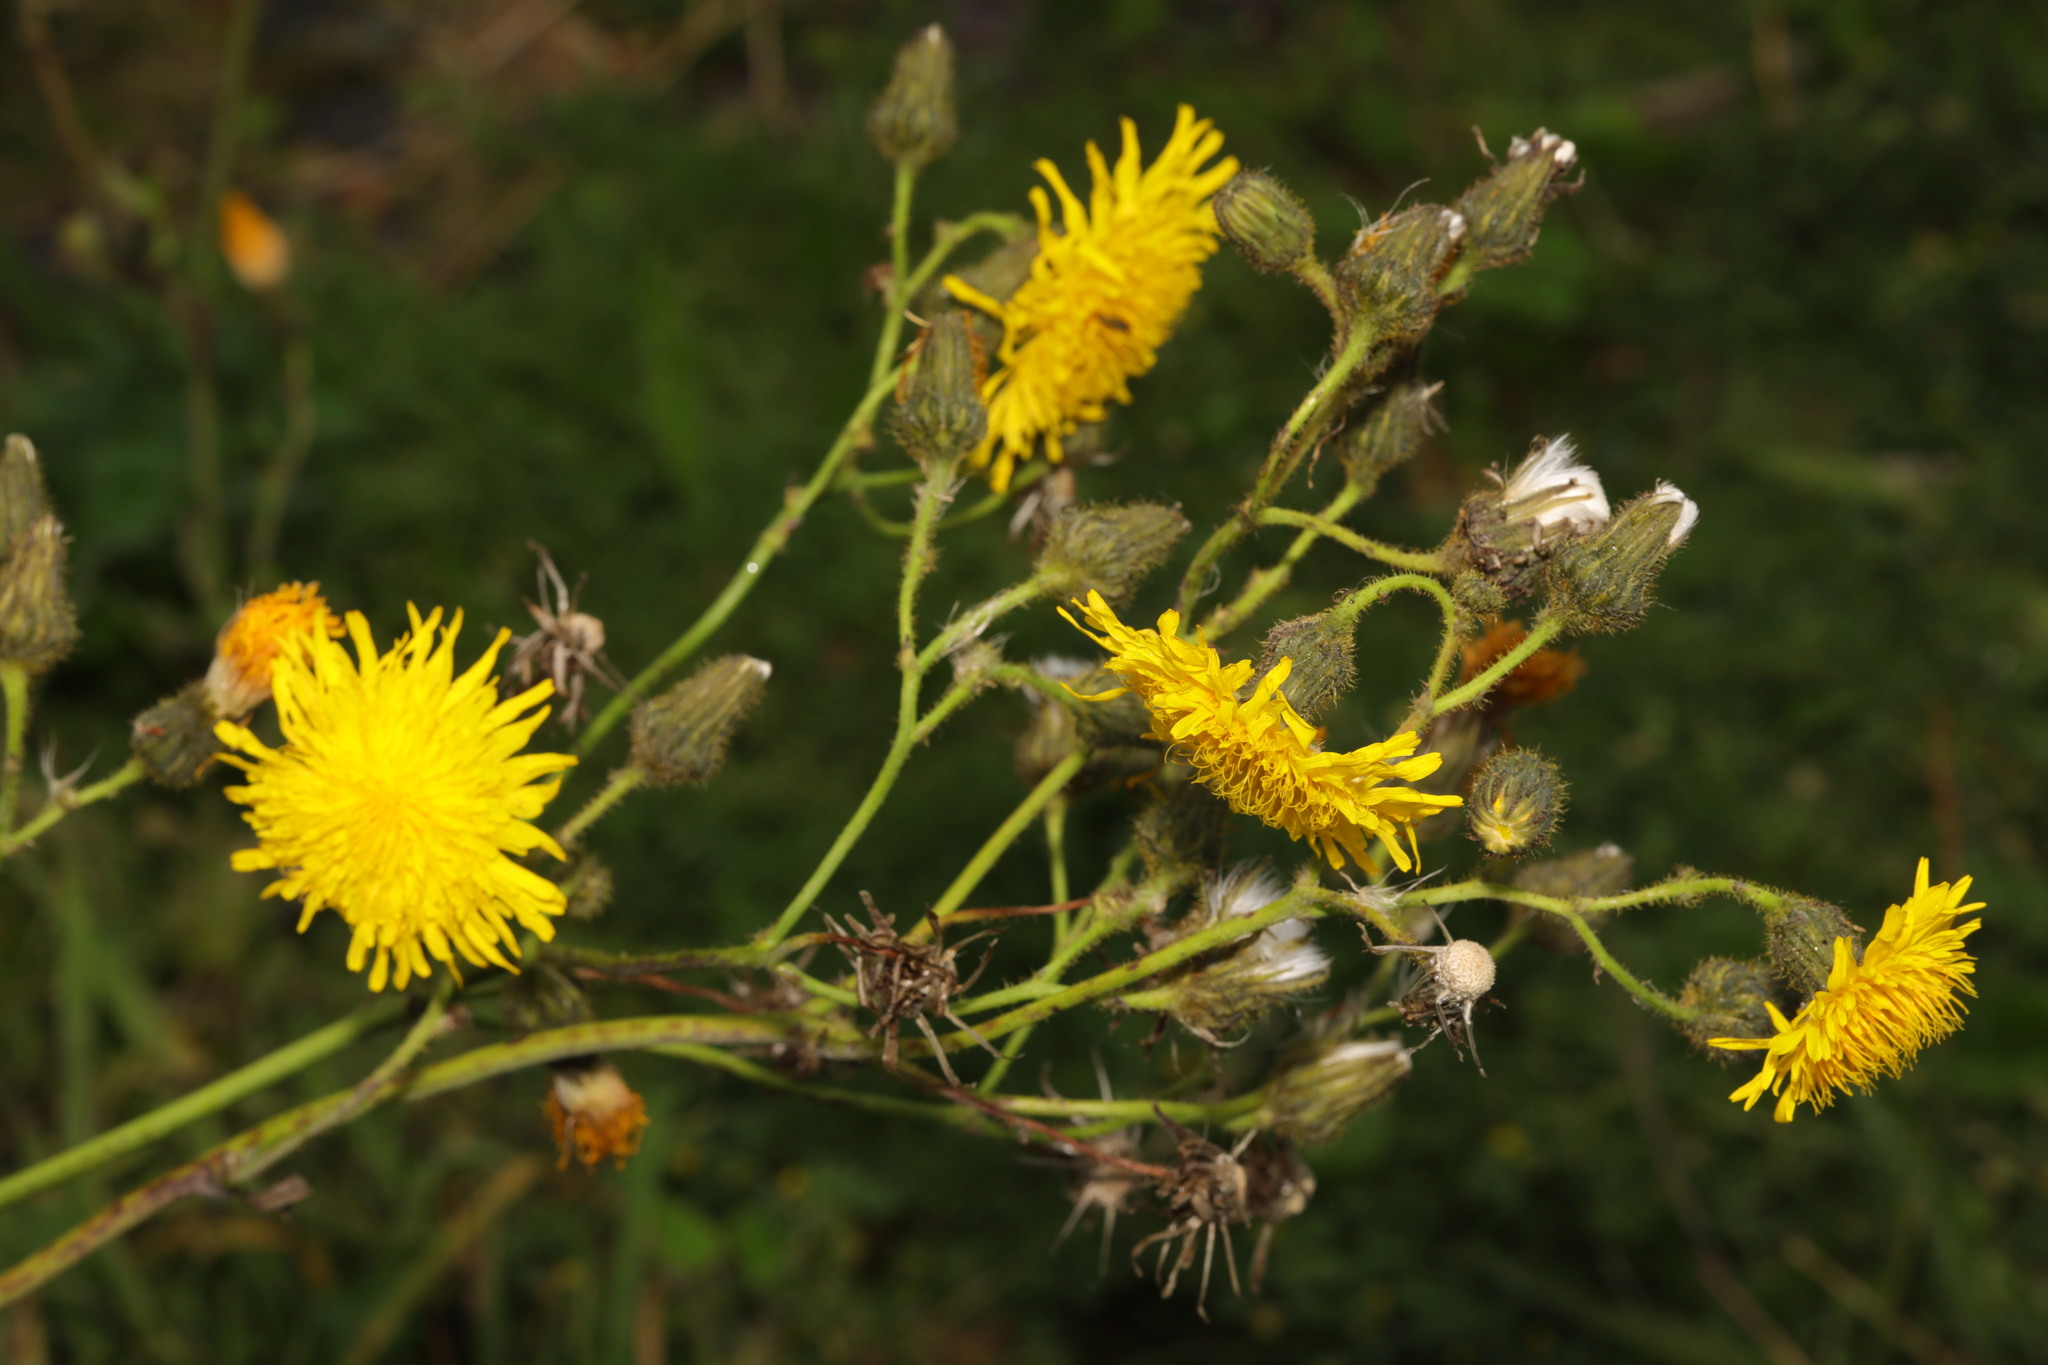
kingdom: Plantae
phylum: Tracheophyta
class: Magnoliopsida
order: Asterales
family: Asteraceae
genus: Sonchus
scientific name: Sonchus arvensis
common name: Perennial sow-thistle
